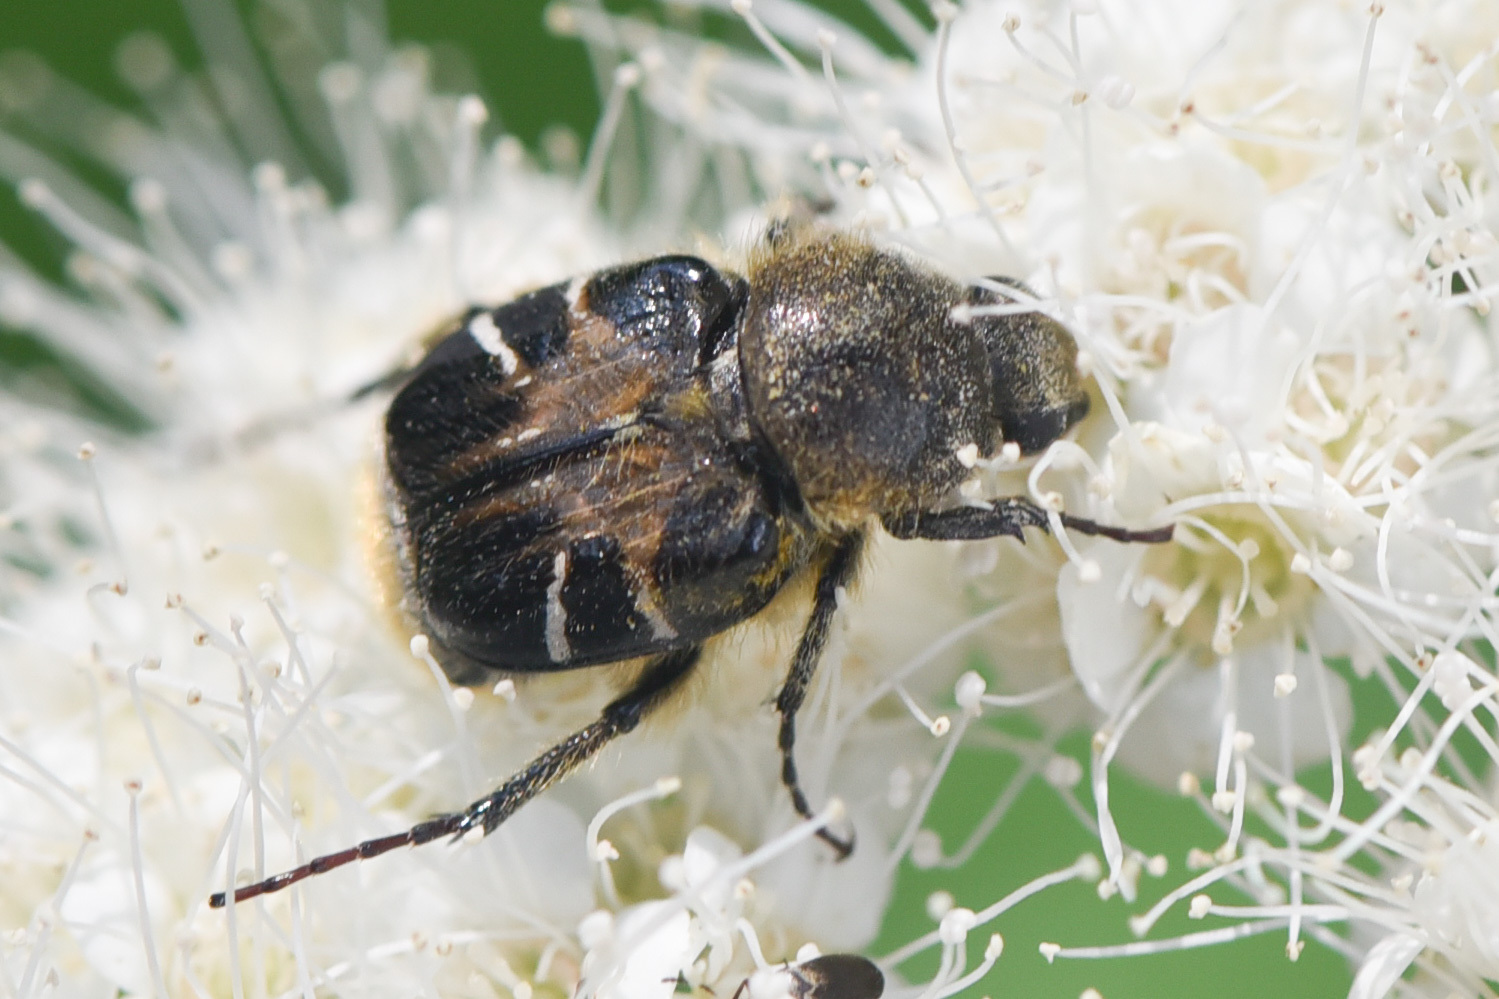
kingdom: Animalia
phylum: Arthropoda
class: Insecta
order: Coleoptera
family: Scarabaeidae
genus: Trichiotinus
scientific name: Trichiotinus assimilis
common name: Bee-mimic beetle
